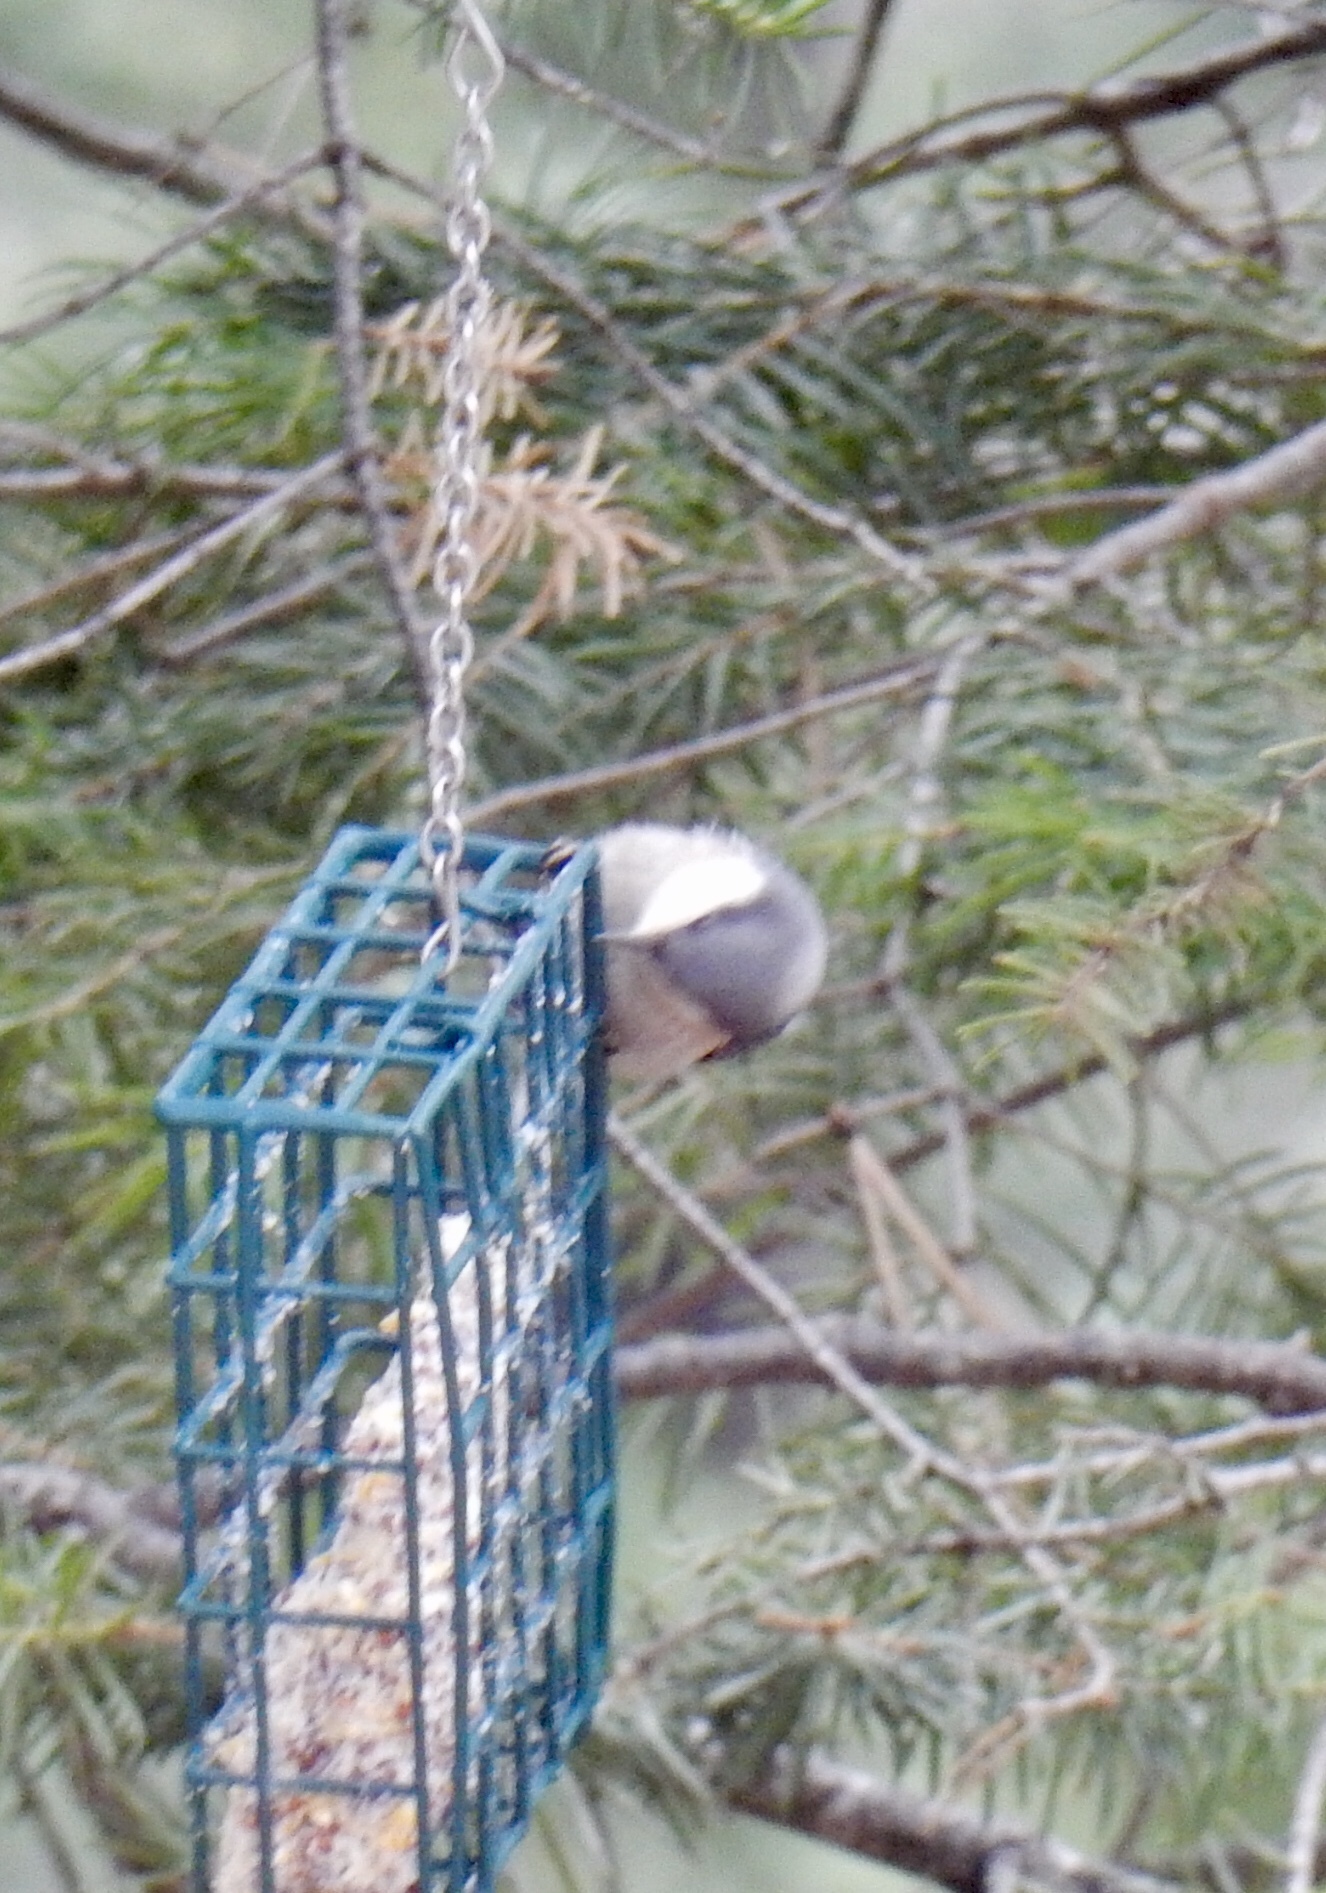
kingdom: Animalia
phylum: Chordata
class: Aves
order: Passeriformes
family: Sittidae
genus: Sitta
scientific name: Sitta pygmaea
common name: Pygmy nuthatch
